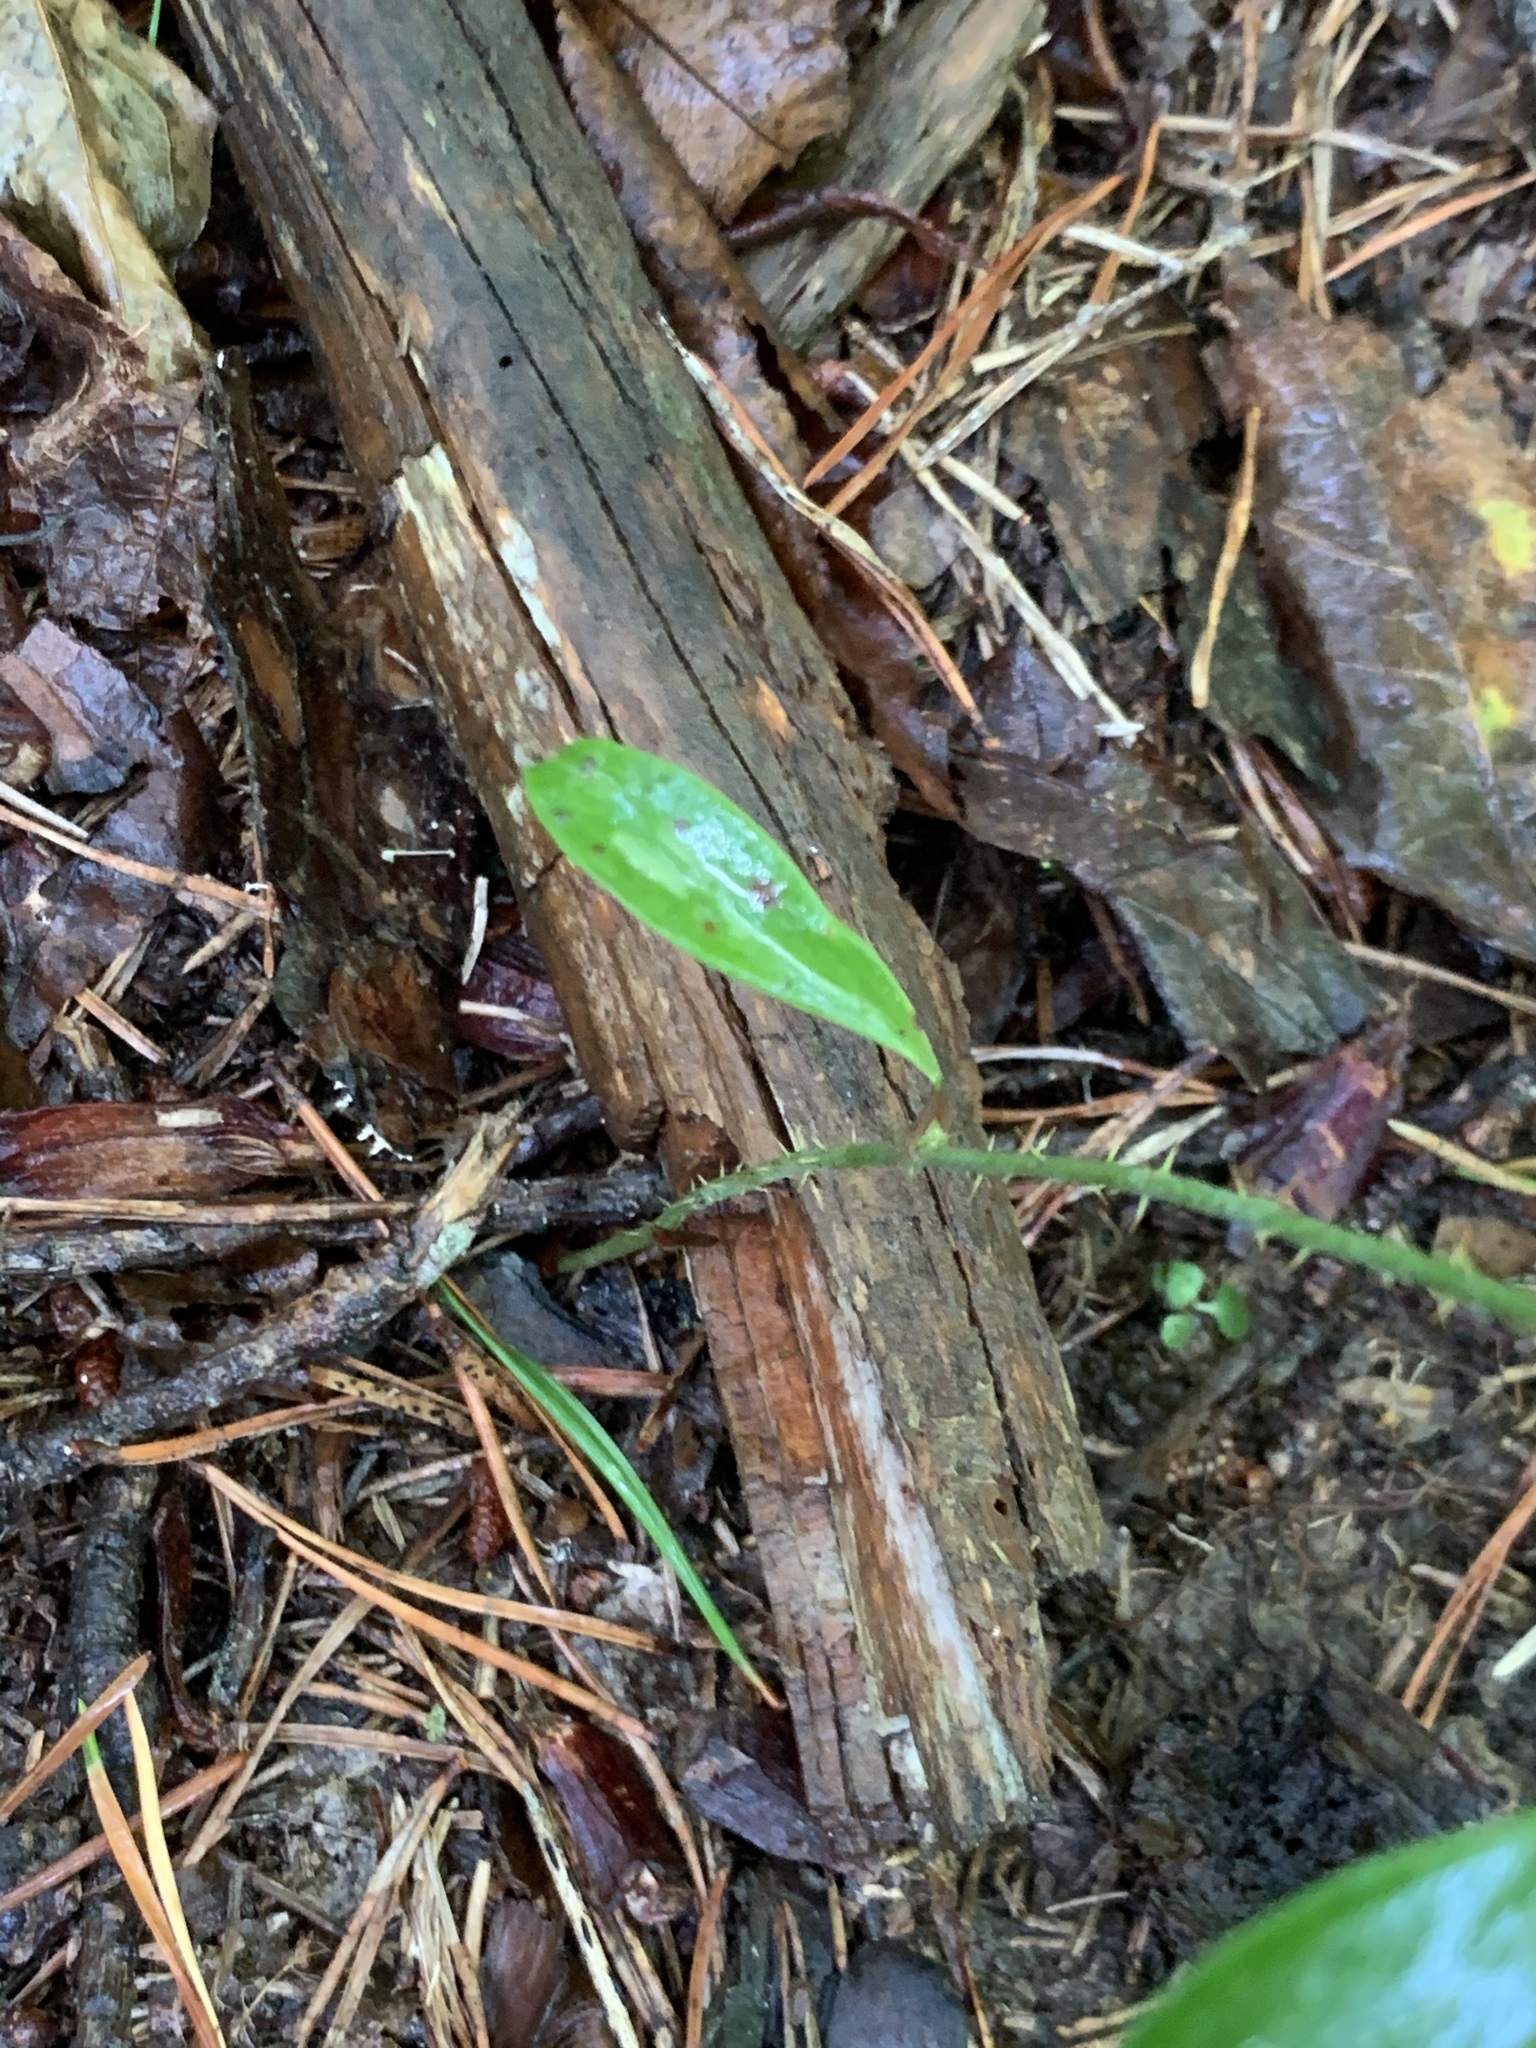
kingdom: Plantae
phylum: Tracheophyta
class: Liliopsida
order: Liliales
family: Smilacaceae
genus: Smilax
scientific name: Smilax glauca
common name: Cat greenbrier
